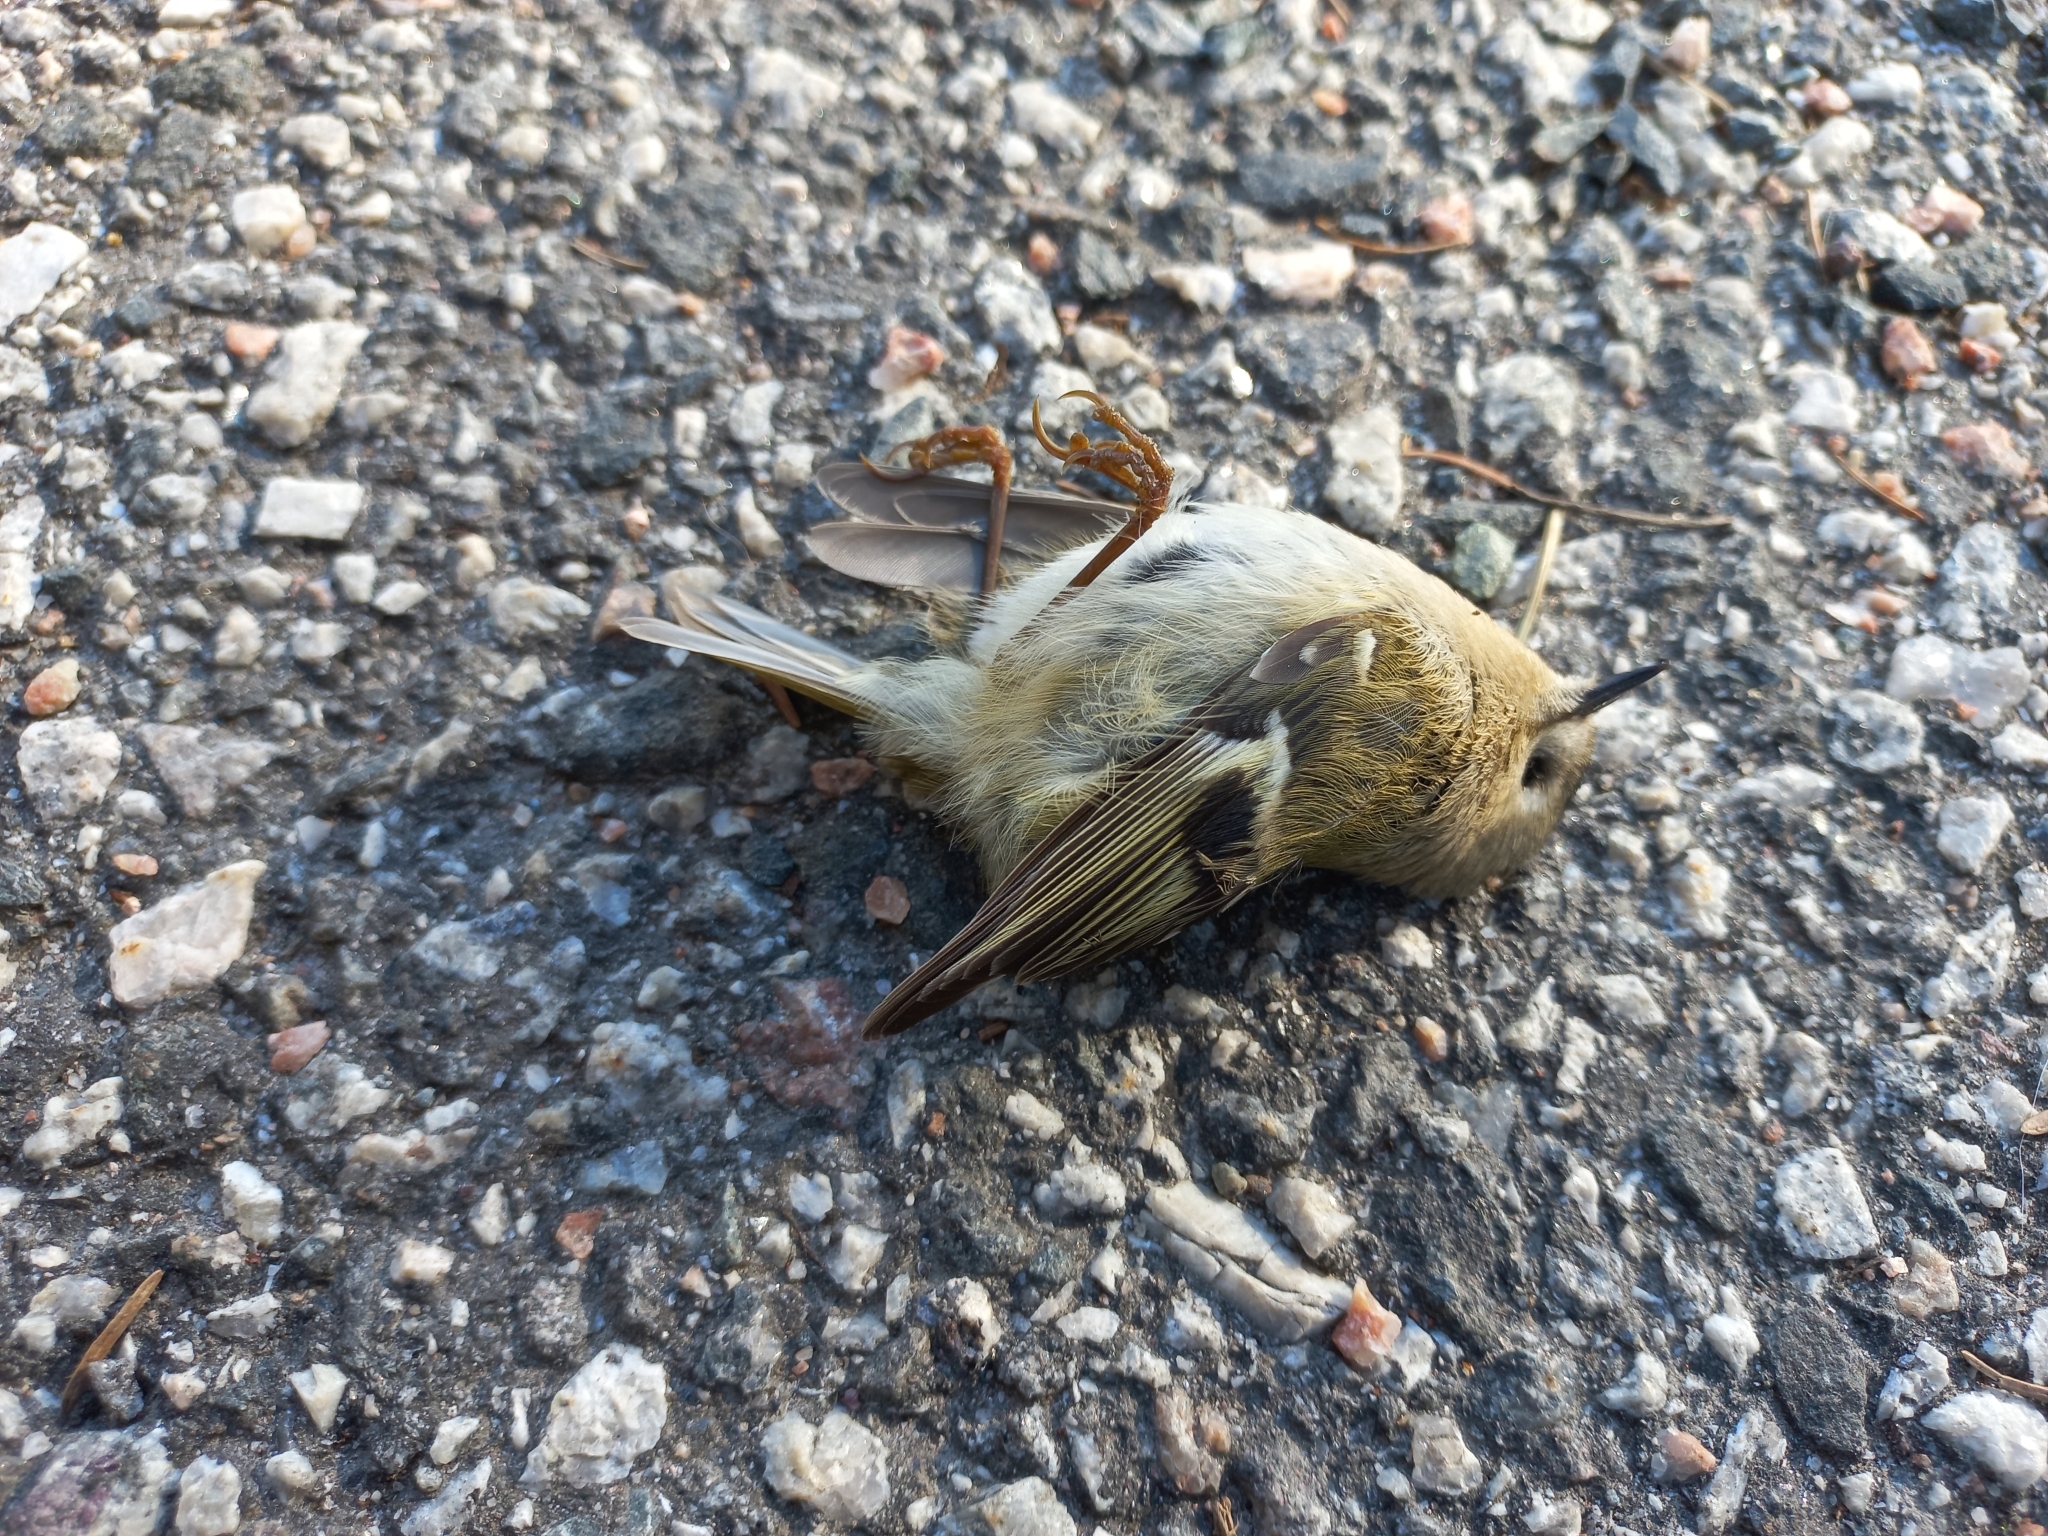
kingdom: Animalia
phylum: Chordata
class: Aves
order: Passeriformes
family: Regulidae
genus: Regulus
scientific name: Regulus regulus
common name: Goldcrest
